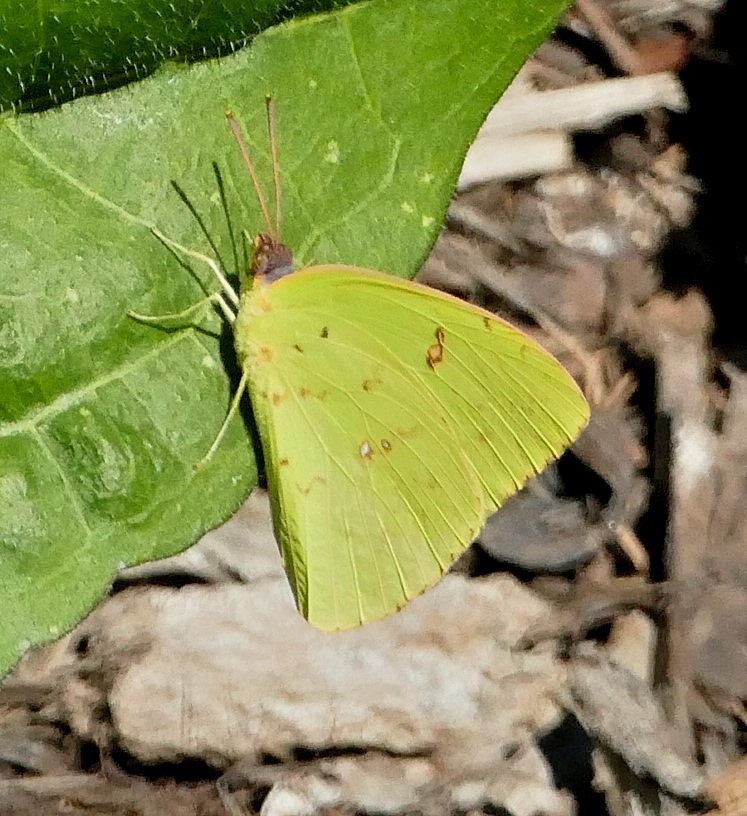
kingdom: Animalia
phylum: Arthropoda
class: Insecta
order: Lepidoptera
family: Pieridae
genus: Phoebis
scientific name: Phoebis sennae
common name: Cloudless sulphur
